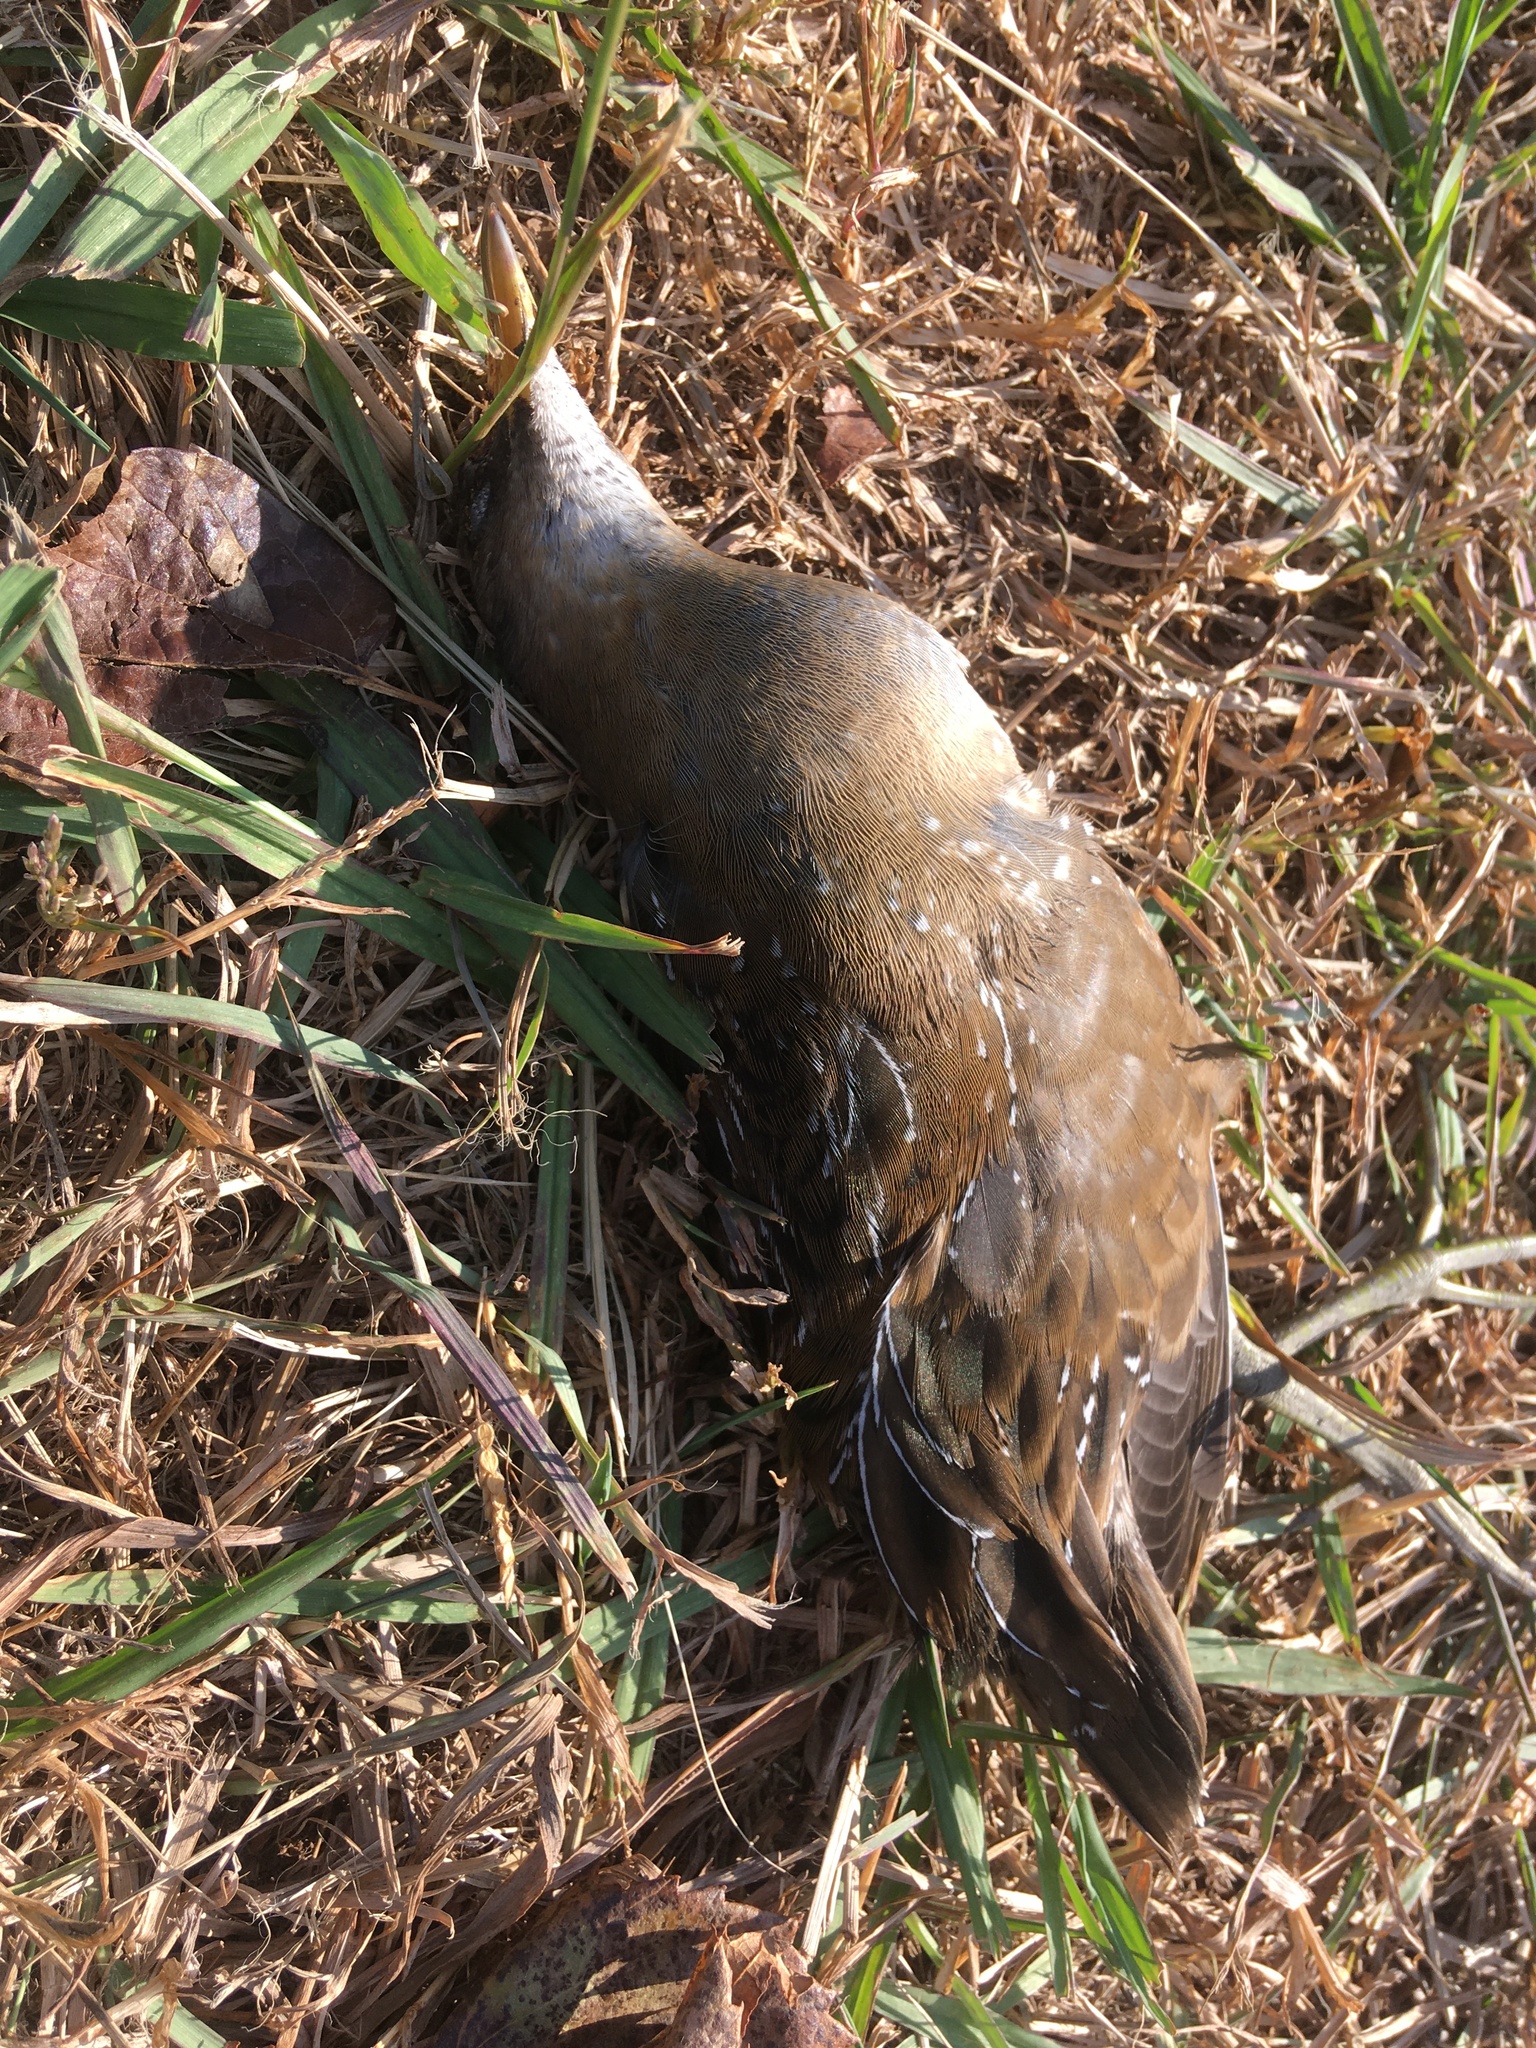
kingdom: Animalia
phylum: Chordata
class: Aves
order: Gruiformes
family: Rallidae
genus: Porzana
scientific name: Porzana carolina
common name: Sora
